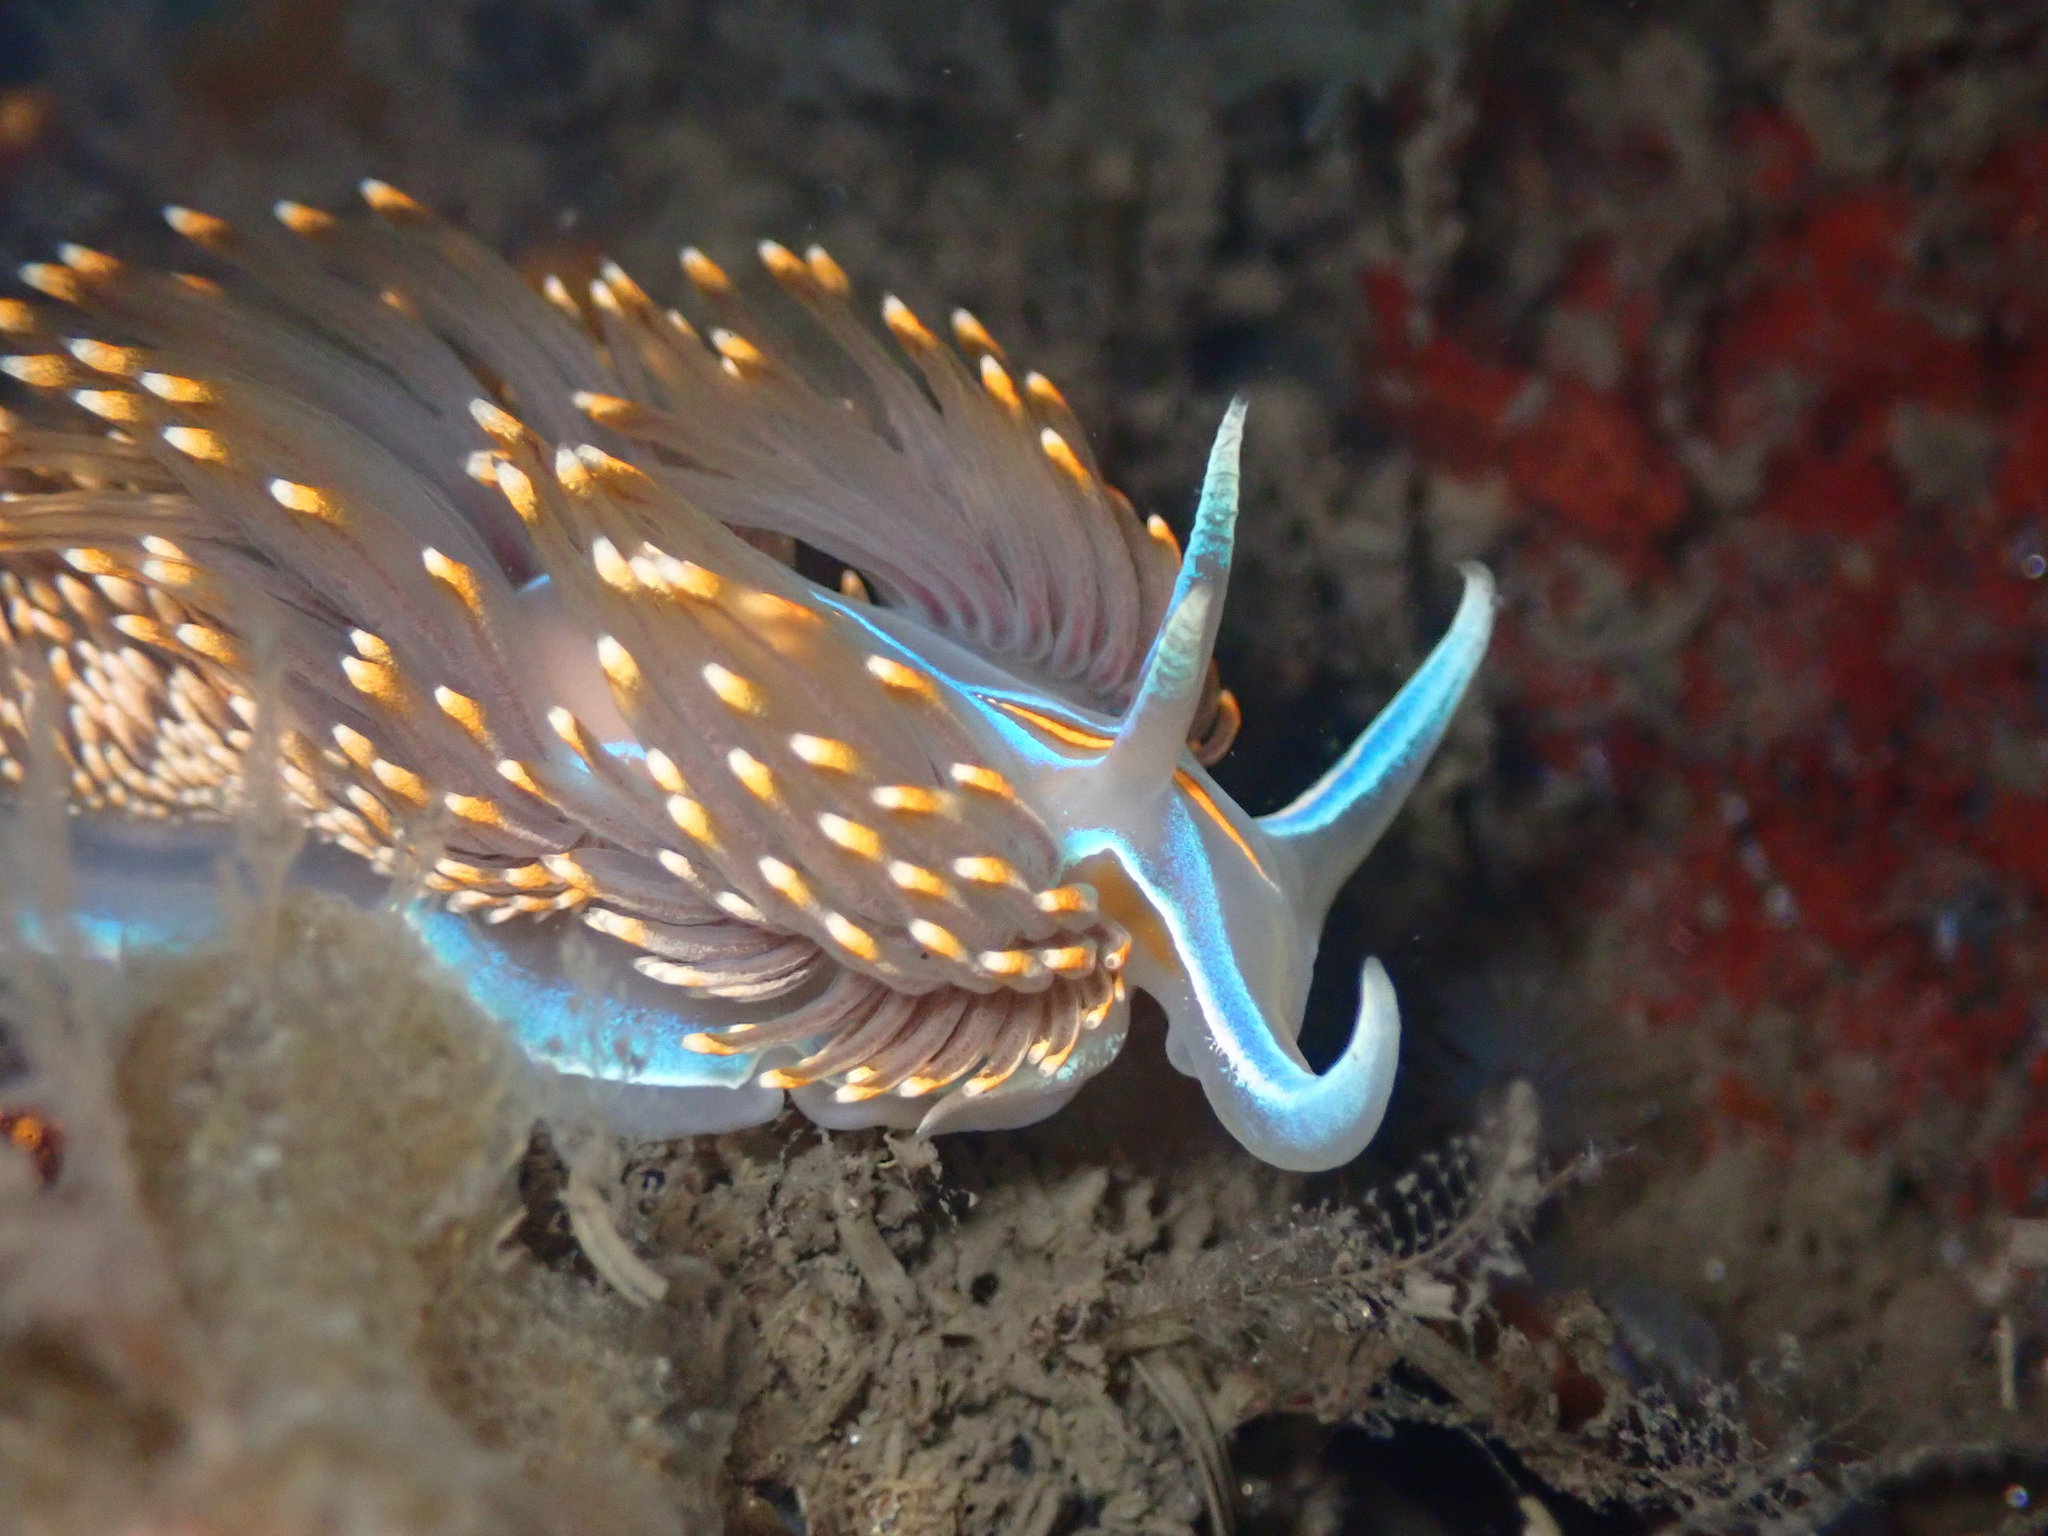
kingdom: Animalia
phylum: Mollusca
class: Gastropoda
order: Nudibranchia
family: Myrrhinidae
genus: Hermissenda
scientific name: Hermissenda opalescens
